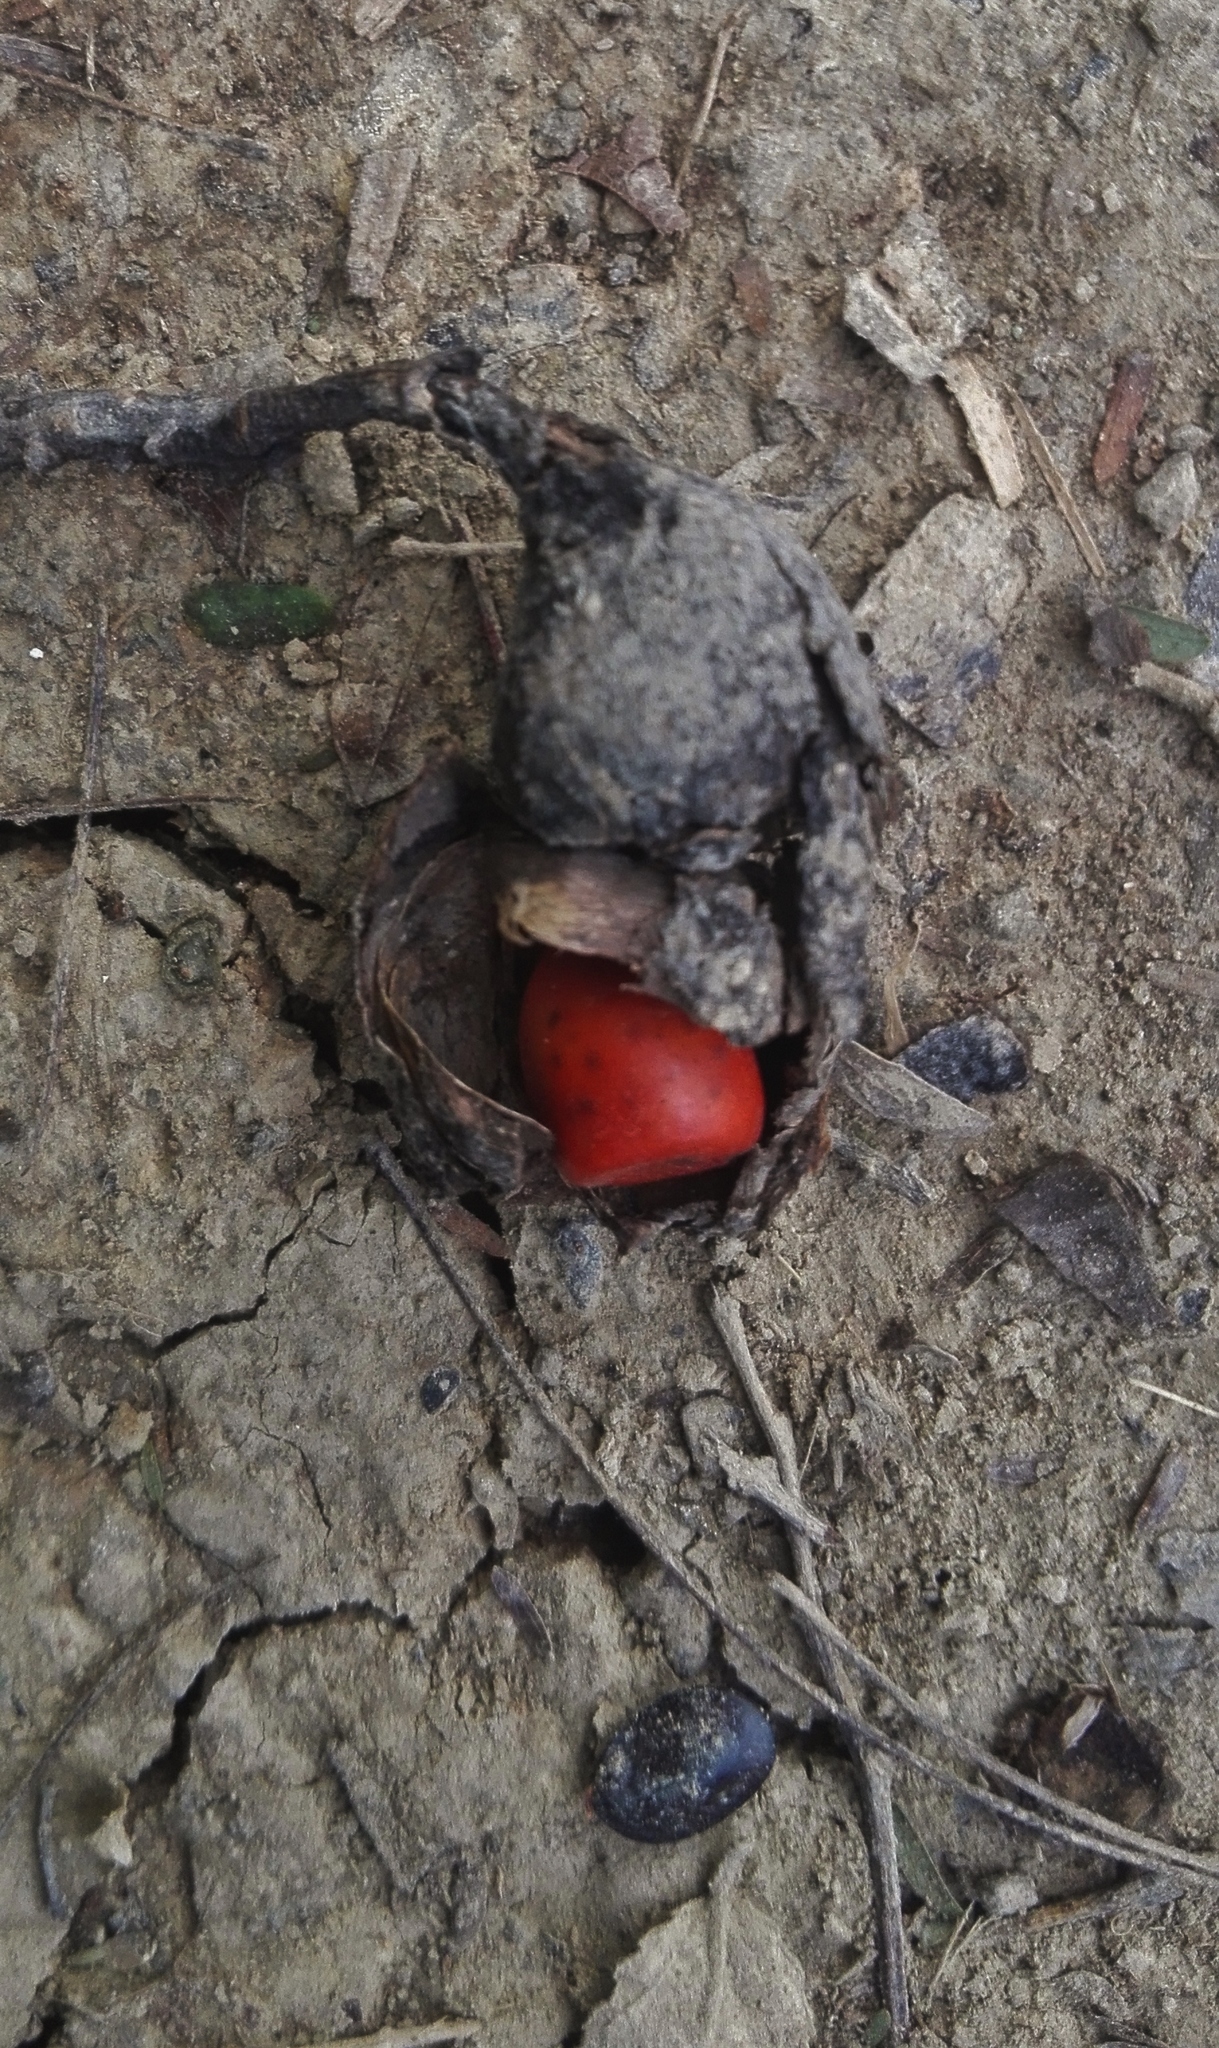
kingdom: Plantae
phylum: Tracheophyta
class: Magnoliopsida
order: Fabales
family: Fabaceae
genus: Dermatophyllum
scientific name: Dermatophyllum secundiflorum
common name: Texas-mountain-laurel
